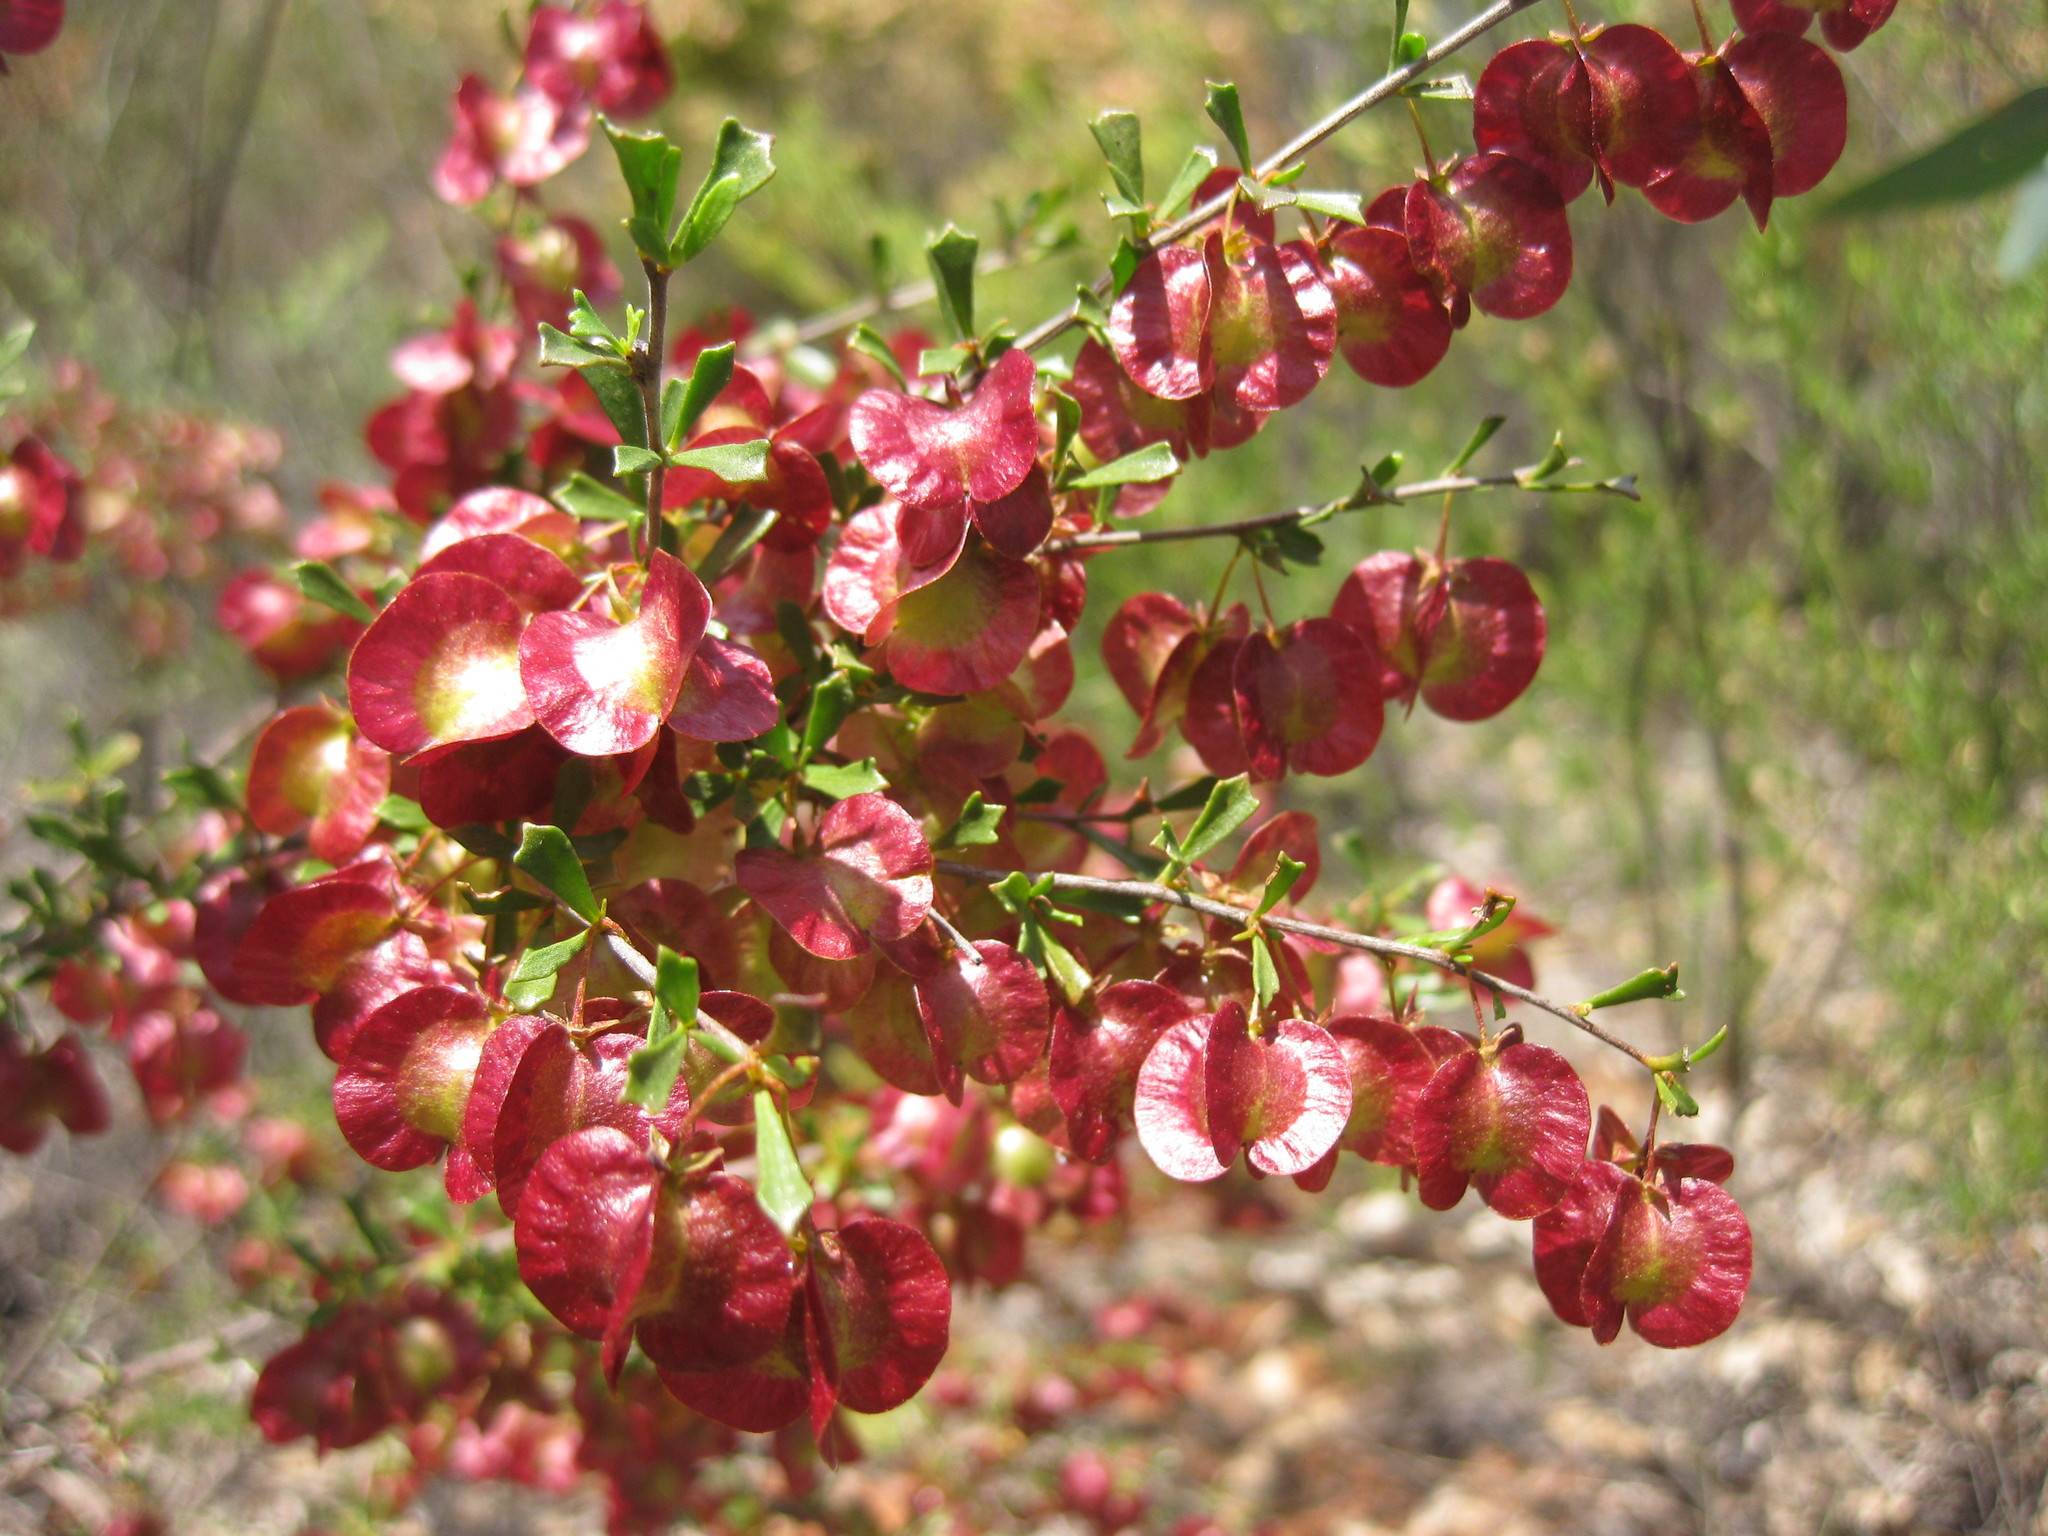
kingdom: Plantae
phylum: Tracheophyta
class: Magnoliopsida
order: Sapindales
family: Sapindaceae
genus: Dodonaea
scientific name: Dodonaea peduncularis
